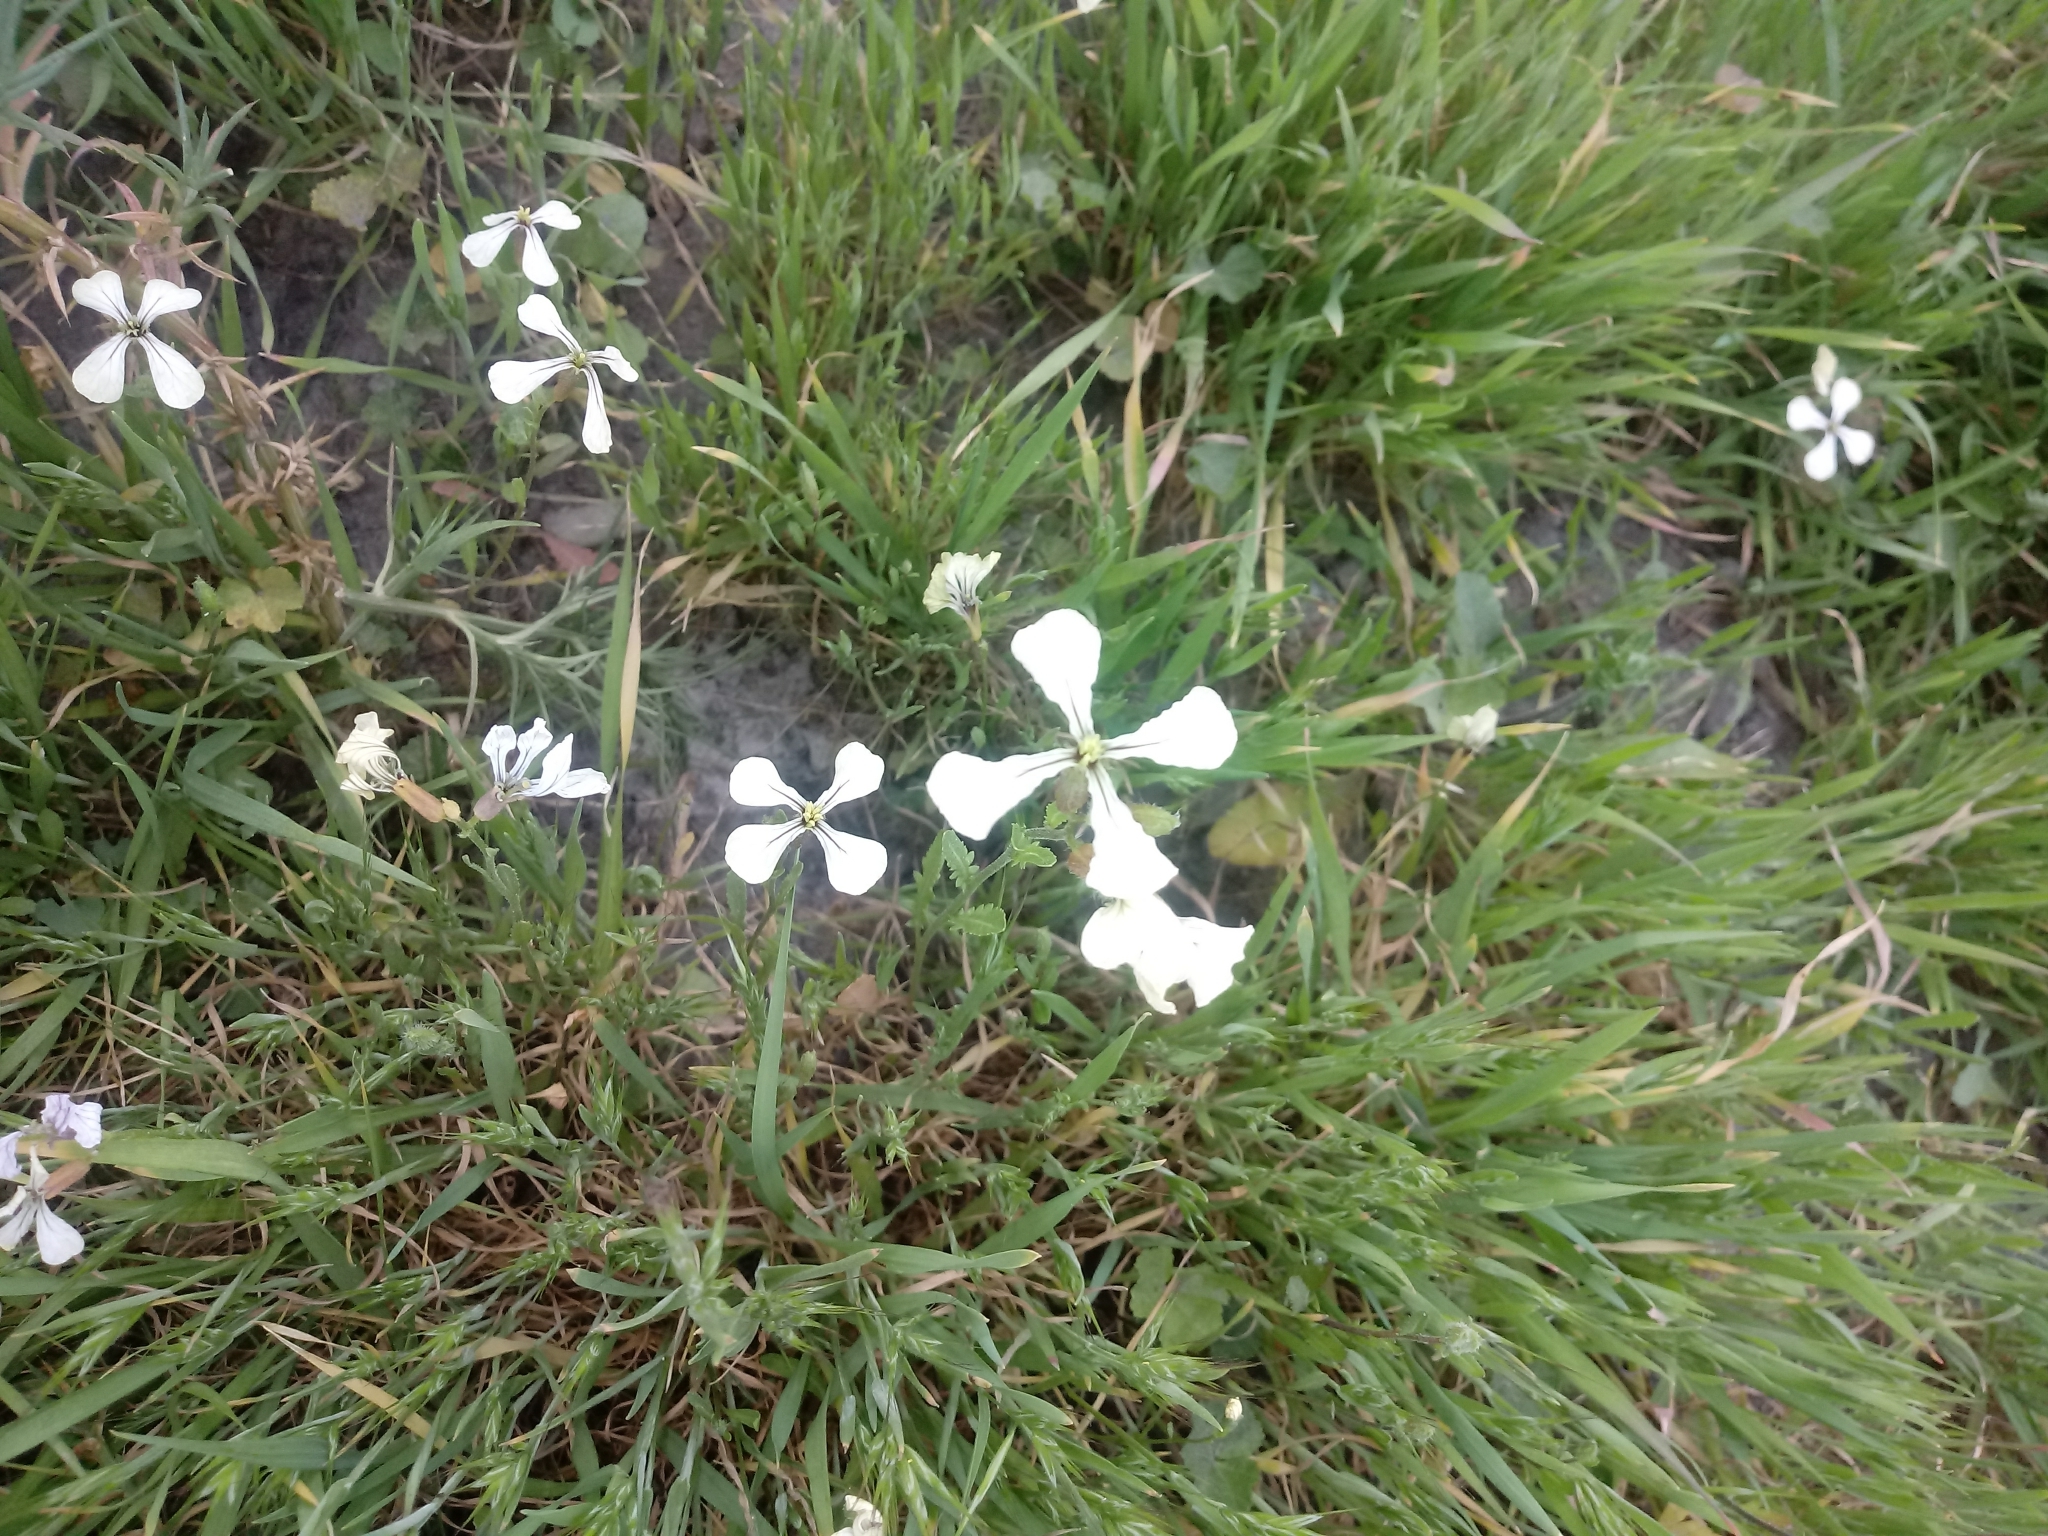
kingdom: Plantae
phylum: Tracheophyta
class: Magnoliopsida
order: Brassicales
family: Brassicaceae
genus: Eruca
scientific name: Eruca vesicaria
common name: Garden rocket
